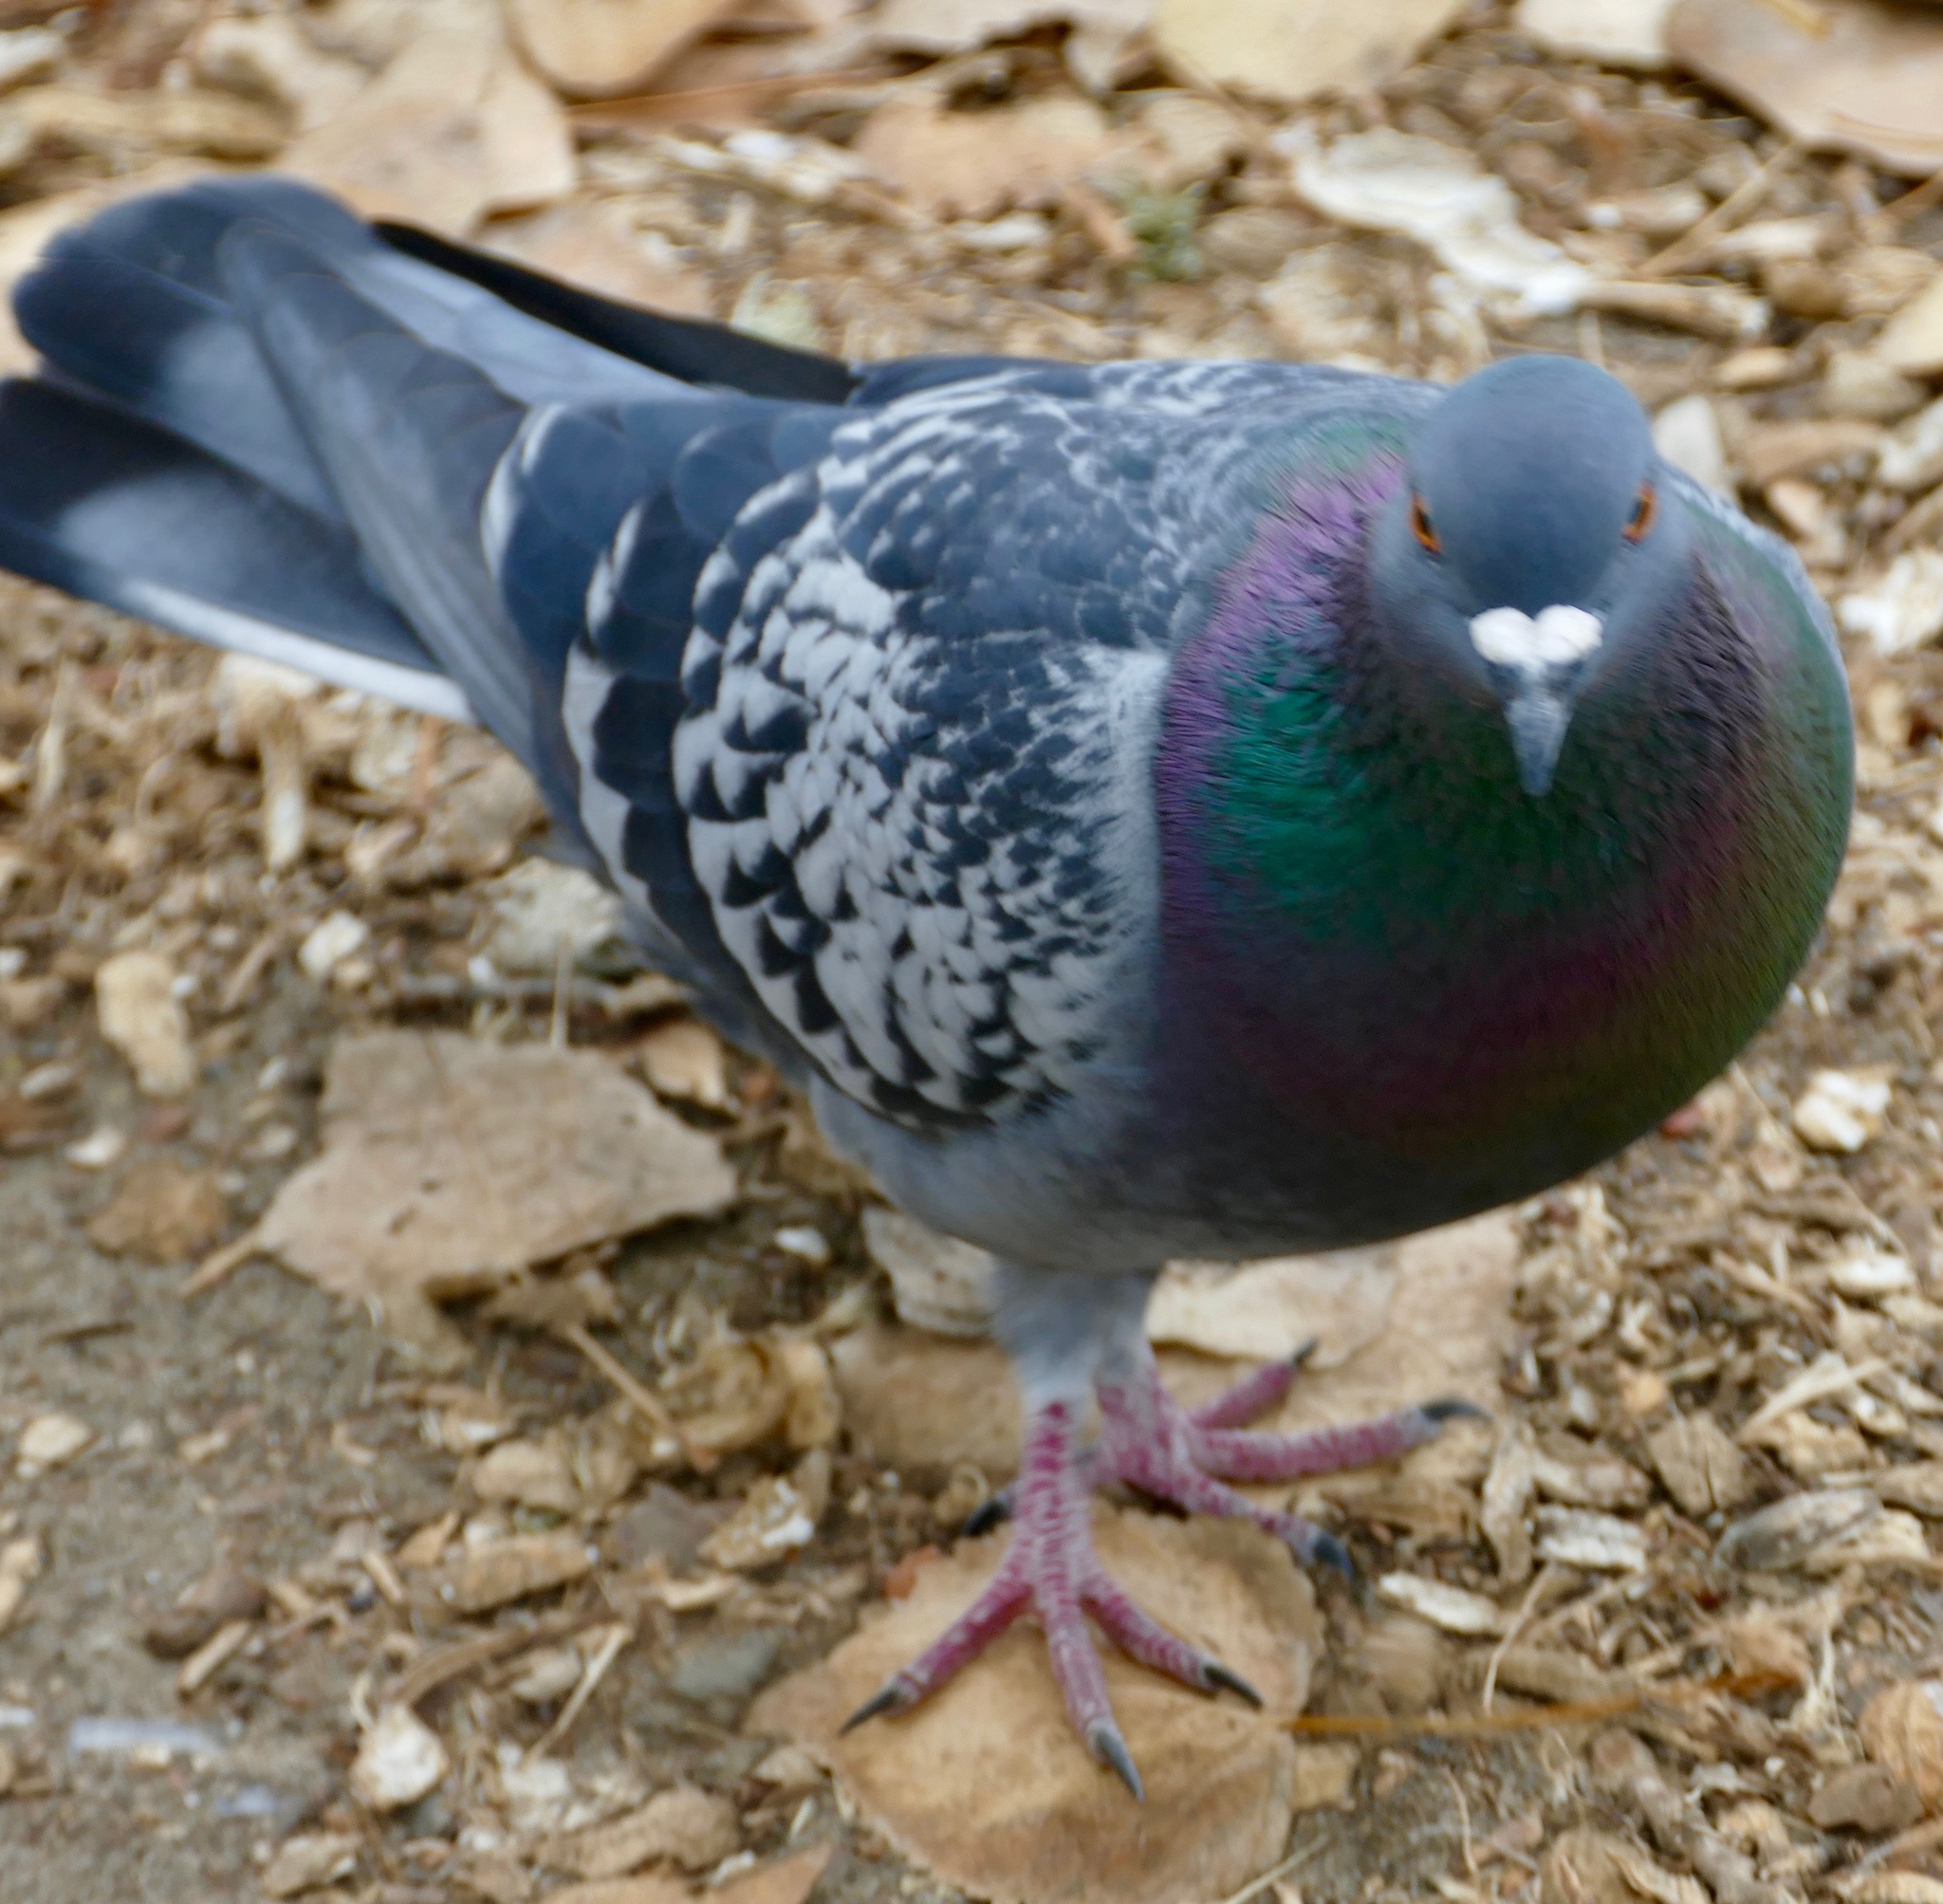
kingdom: Animalia
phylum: Chordata
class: Aves
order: Columbiformes
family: Columbidae
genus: Columba
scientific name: Columba livia
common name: Rock pigeon
